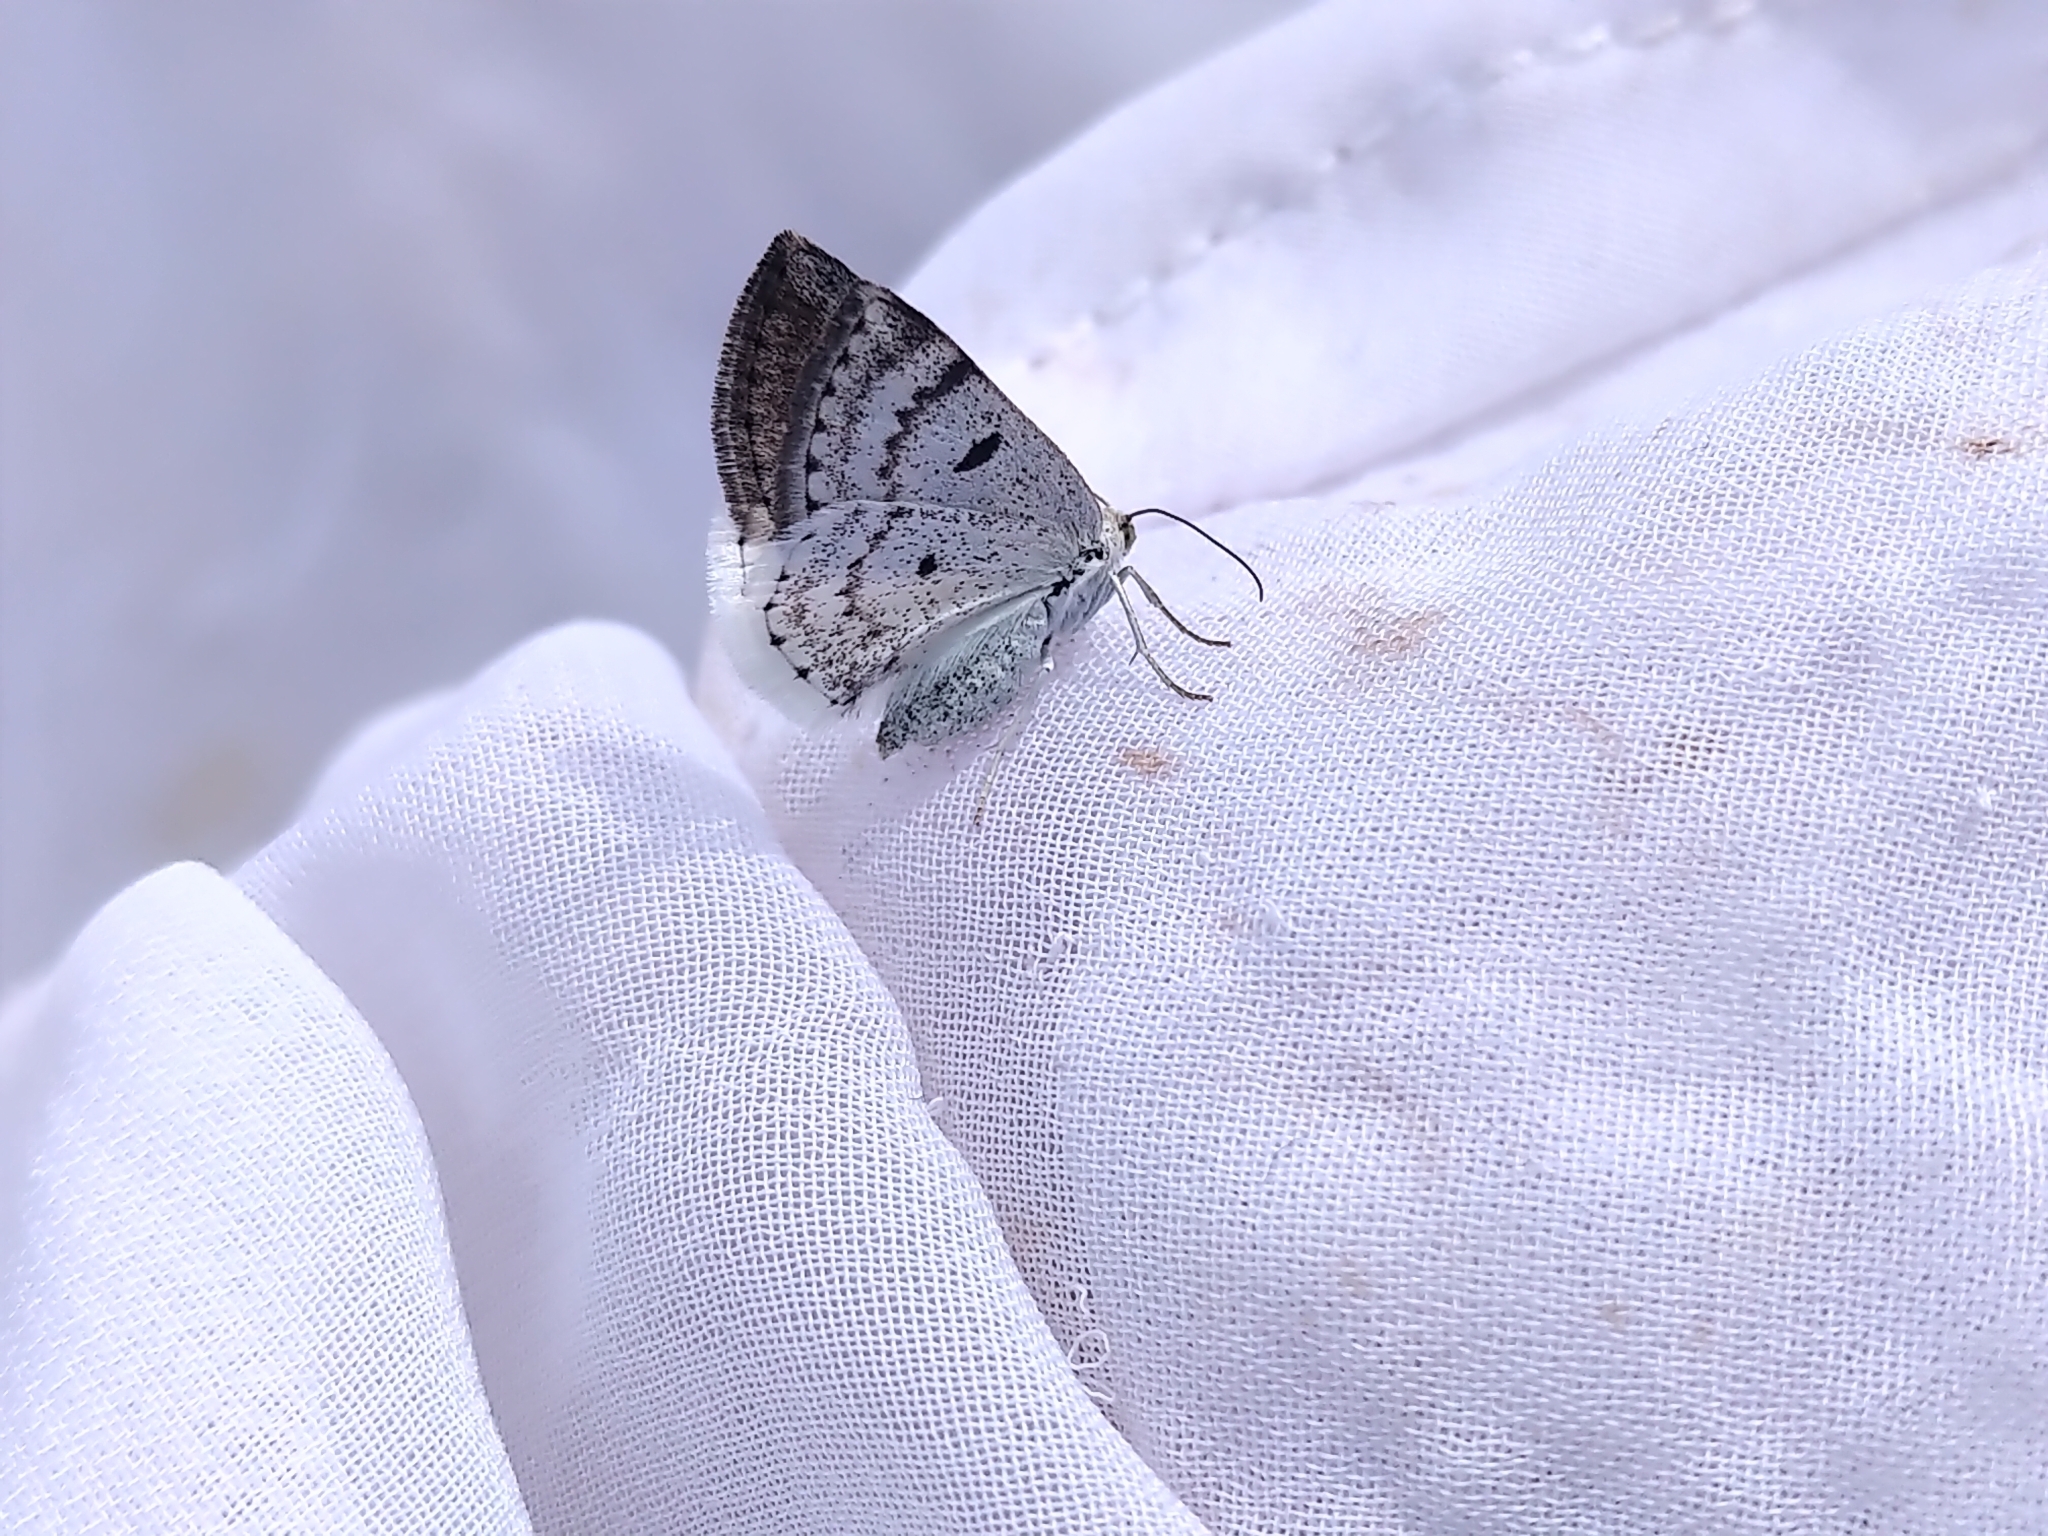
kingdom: Animalia
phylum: Arthropoda
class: Insecta
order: Lepidoptera
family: Geometridae
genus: Lomographa
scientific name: Lomographa semiclarata
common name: Bluish spring moth
